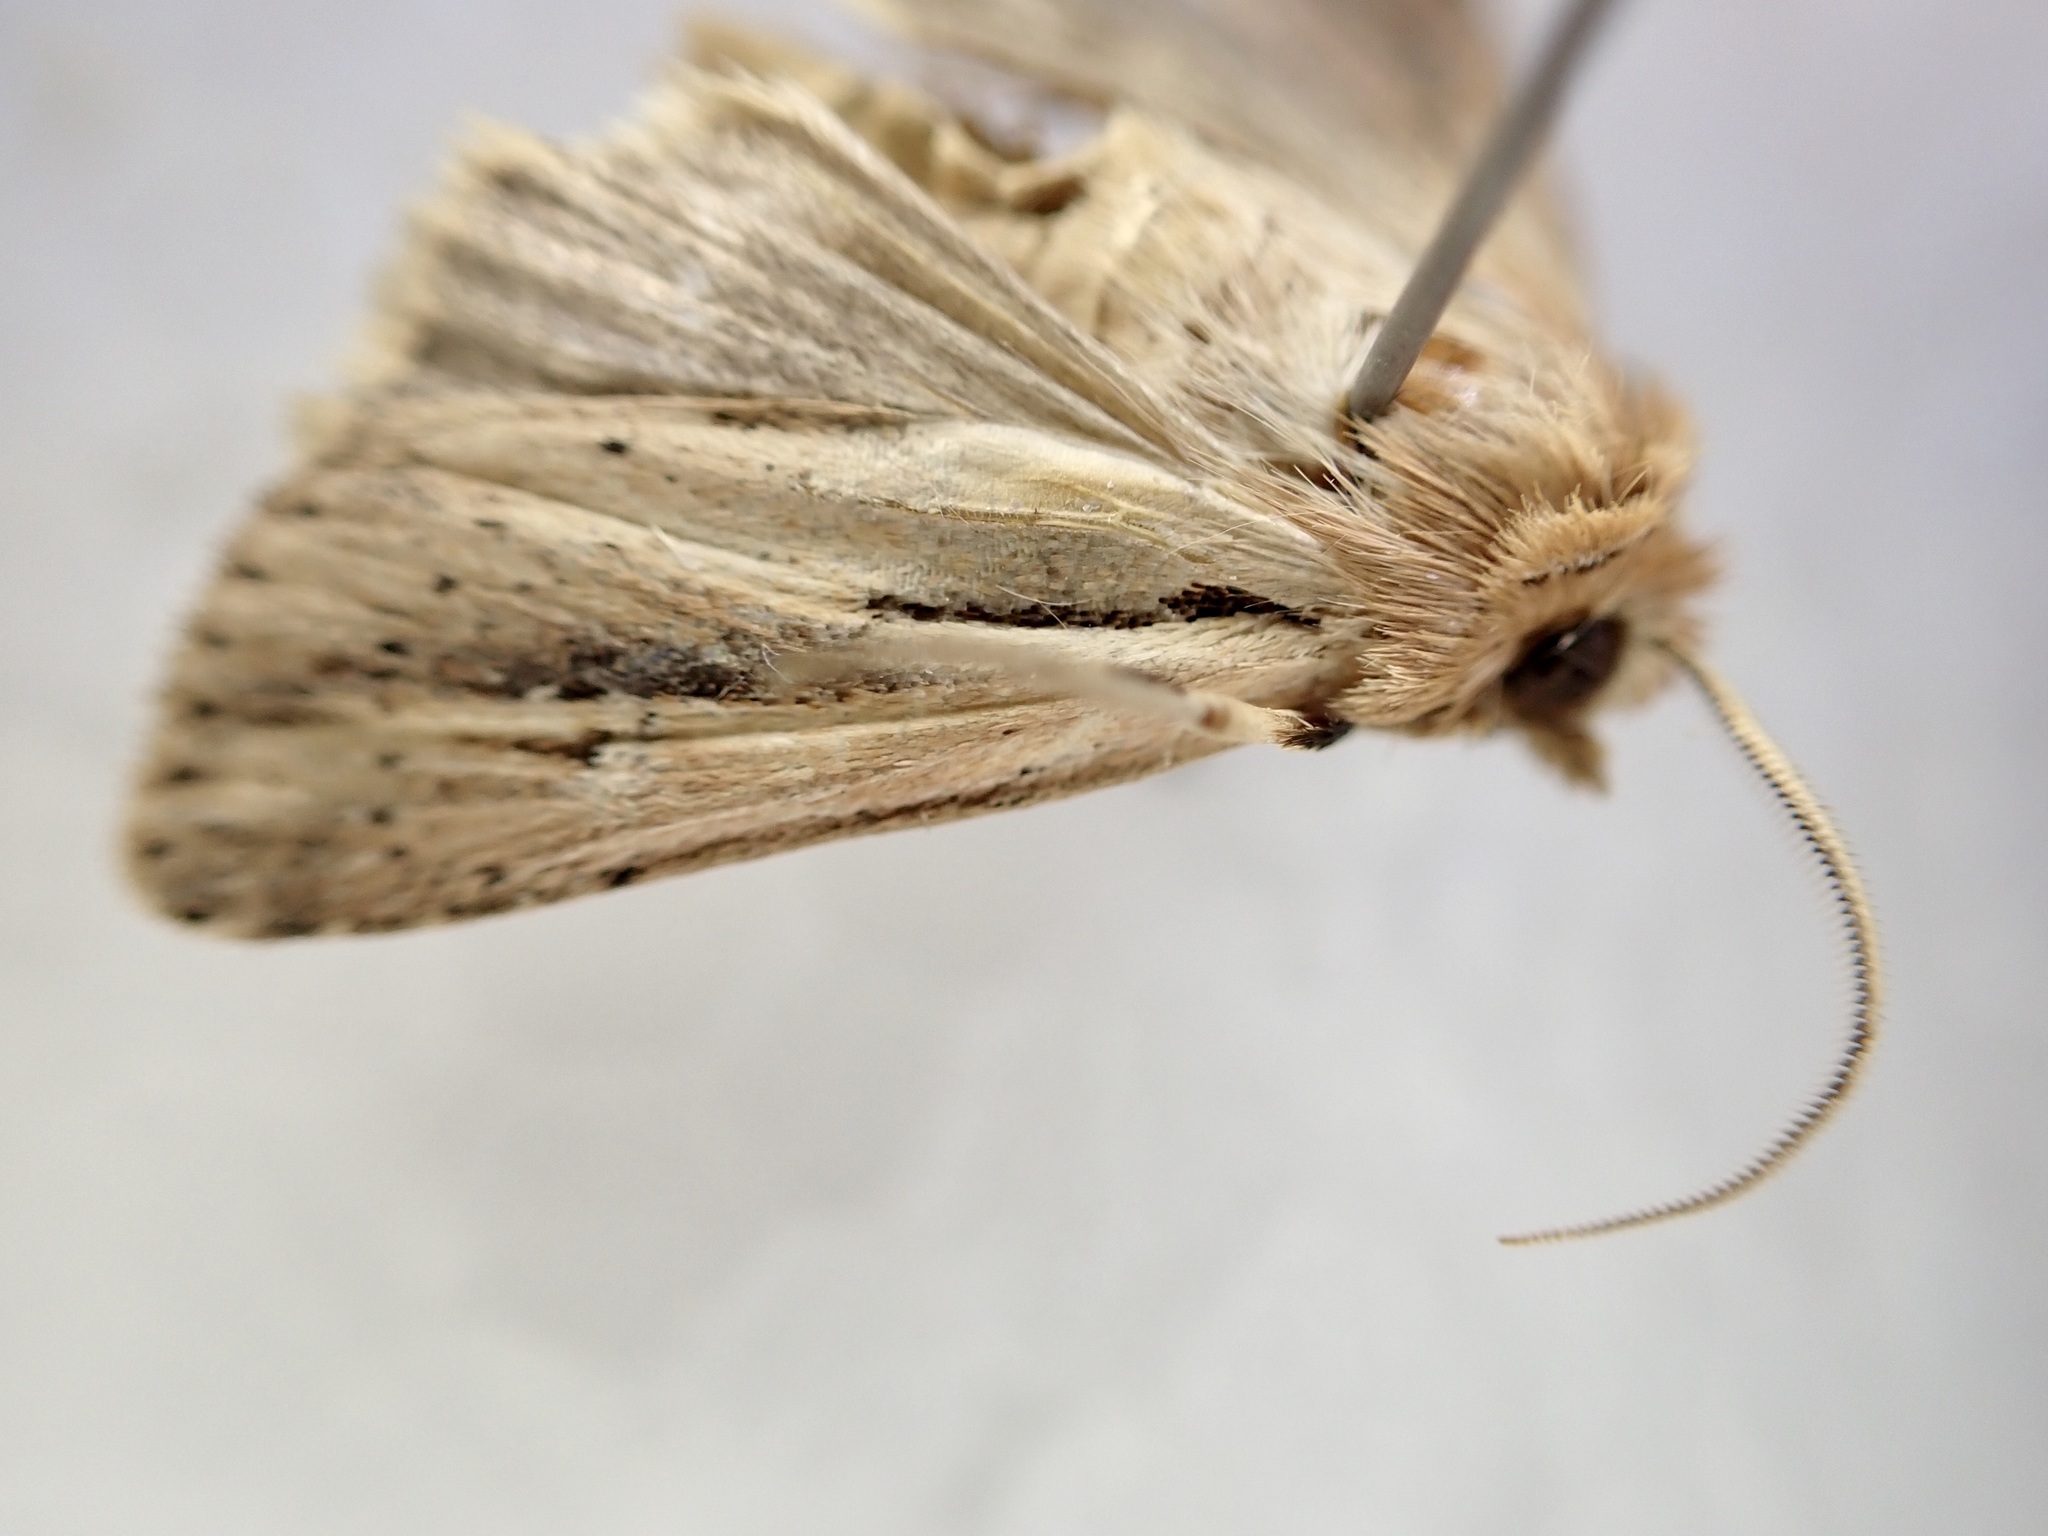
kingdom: Animalia
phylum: Arthropoda
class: Insecta
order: Lepidoptera
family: Noctuidae
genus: Ichneutica
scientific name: Ichneutica propria
